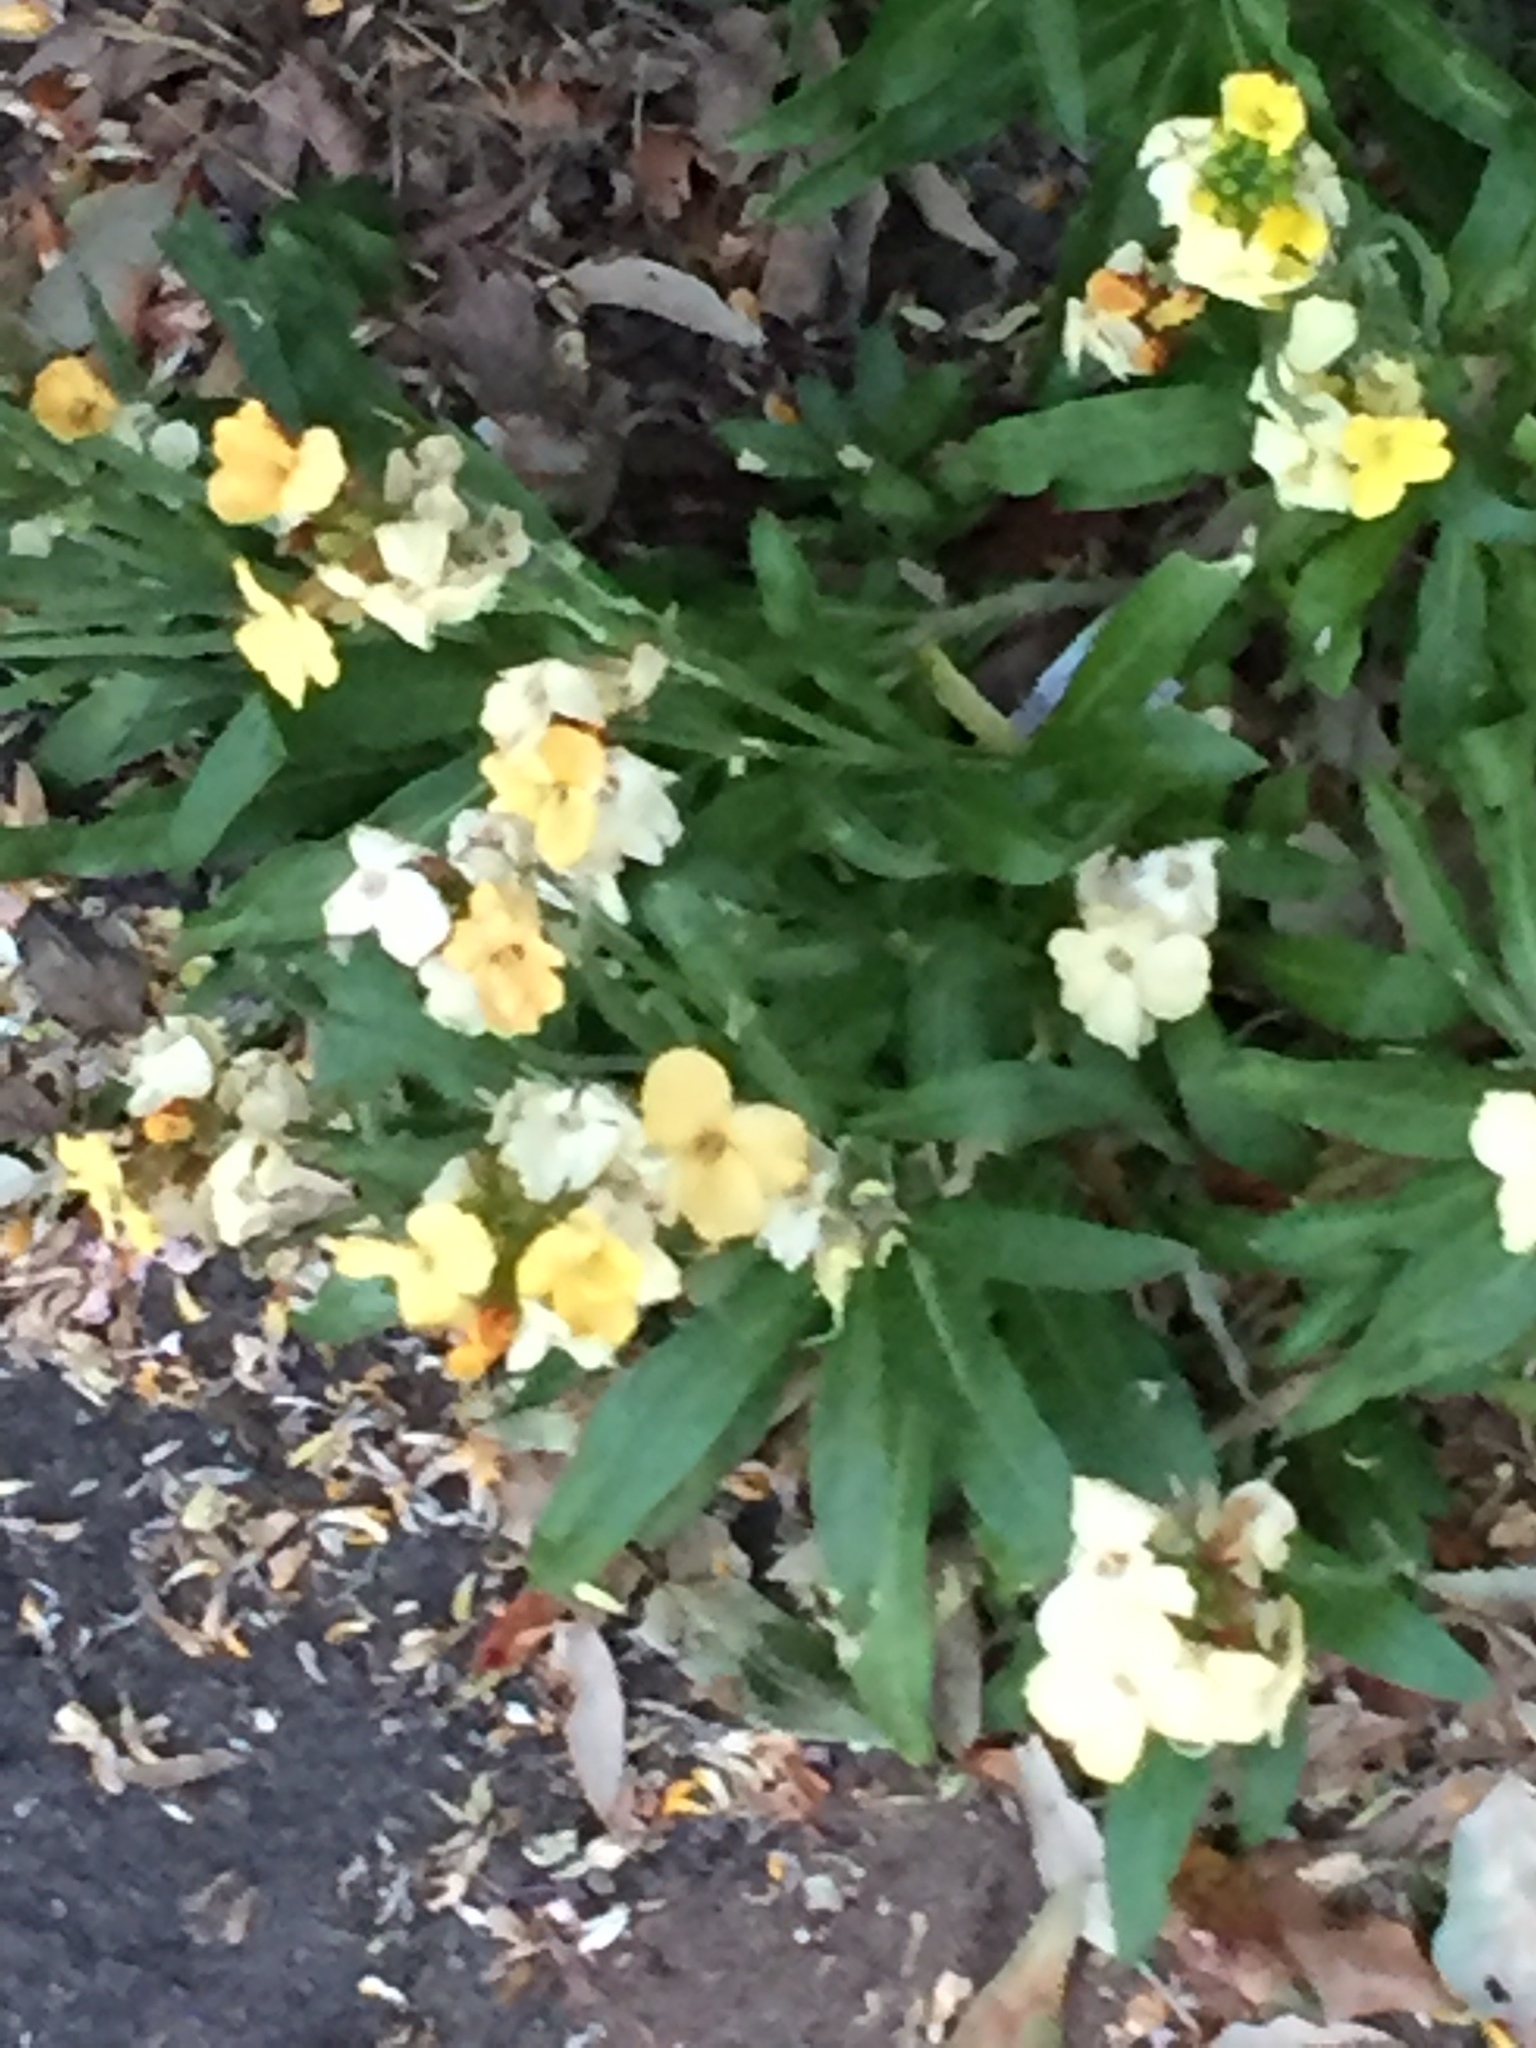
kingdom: Plantae
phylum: Tracheophyta
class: Magnoliopsida
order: Brassicales
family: Brassicaceae
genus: Erysimum
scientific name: Erysimum cheiri
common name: Wallflower
